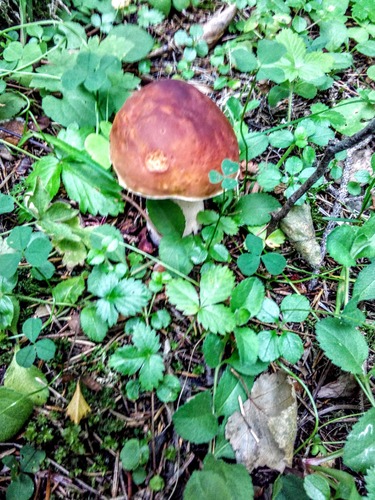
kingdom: Fungi
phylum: Basidiomycota
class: Agaricomycetes
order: Boletales
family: Boletaceae
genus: Boletus
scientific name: Boletus edulis
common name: Cep
